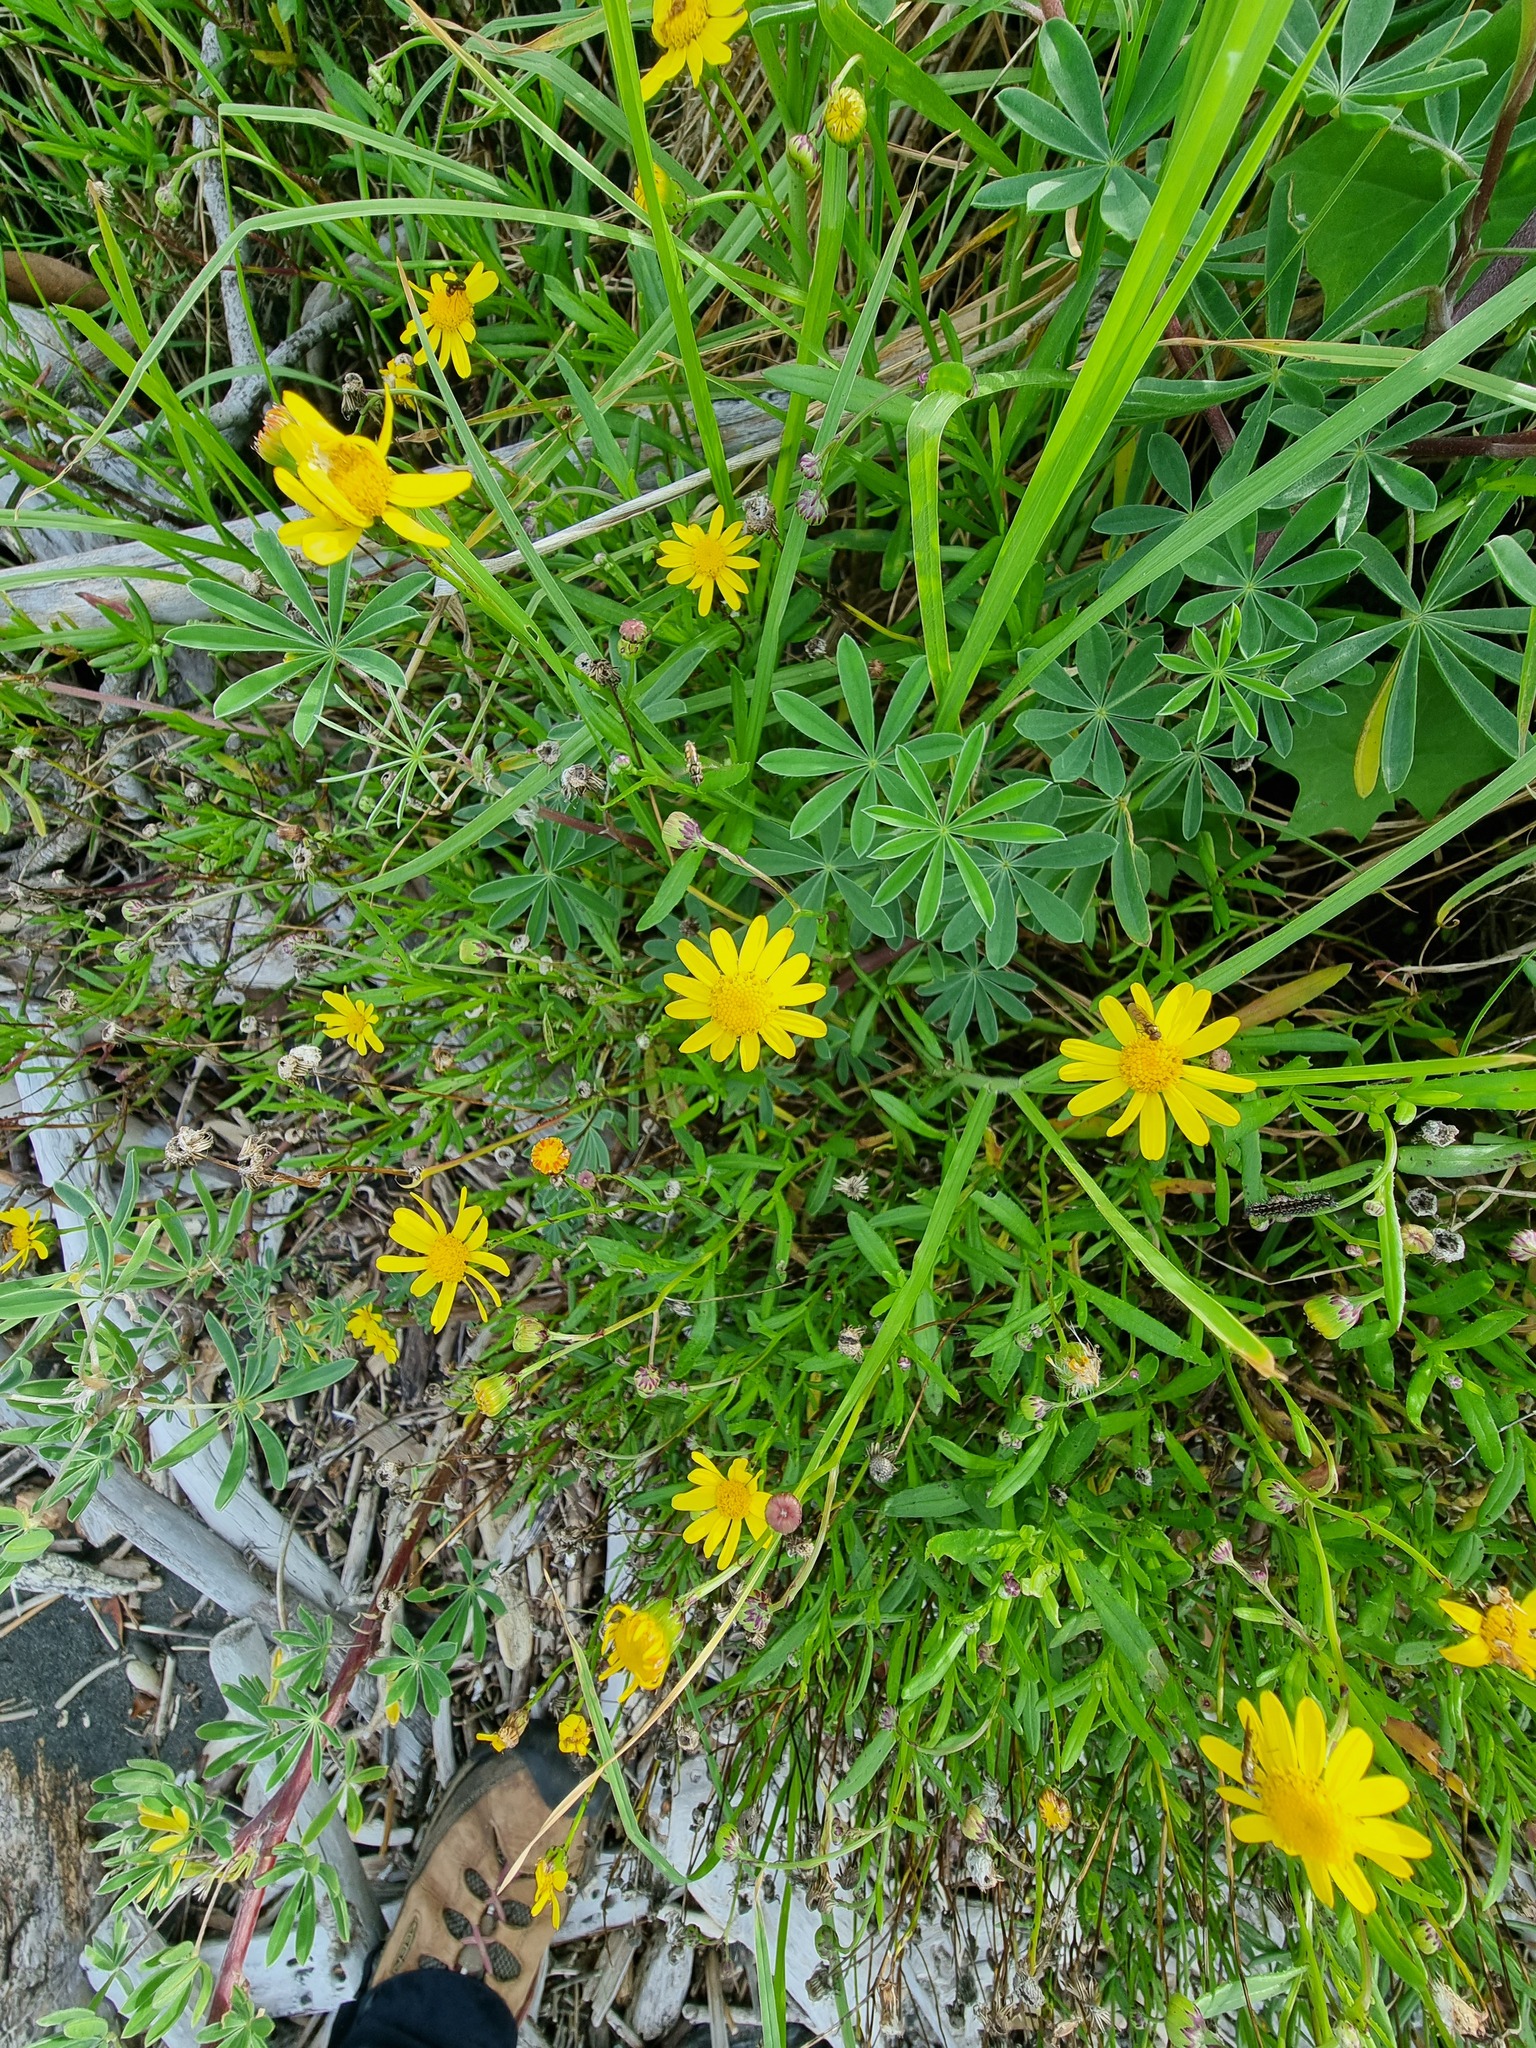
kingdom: Plantae
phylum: Tracheophyta
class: Magnoliopsida
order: Asterales
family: Asteraceae
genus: Senecio
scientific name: Senecio skirrhodon
